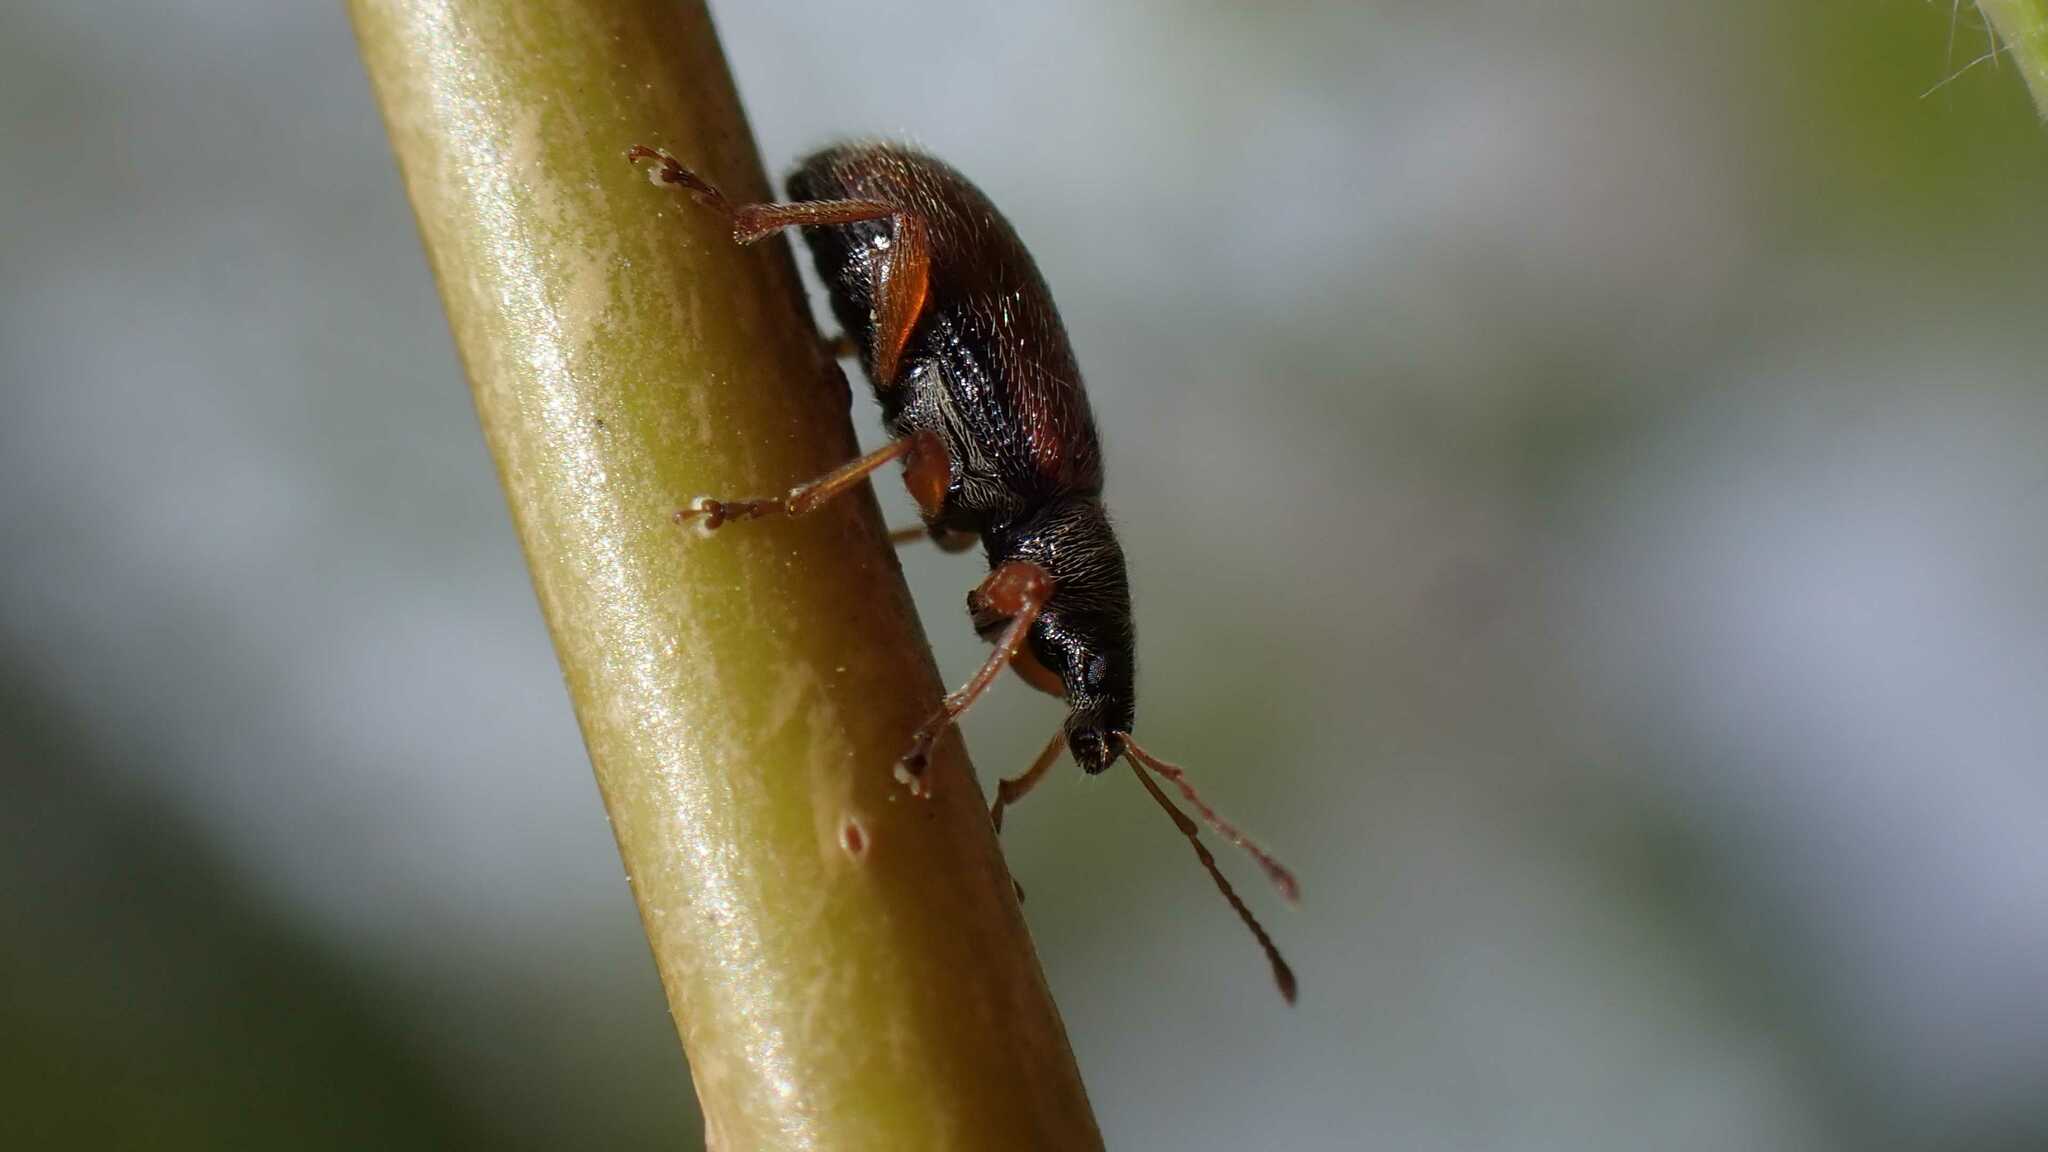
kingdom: Animalia
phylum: Arthropoda
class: Insecta
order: Coleoptera
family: Curculionidae
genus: Phyllobius
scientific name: Phyllobius oblongus
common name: Brown leaf weevil
